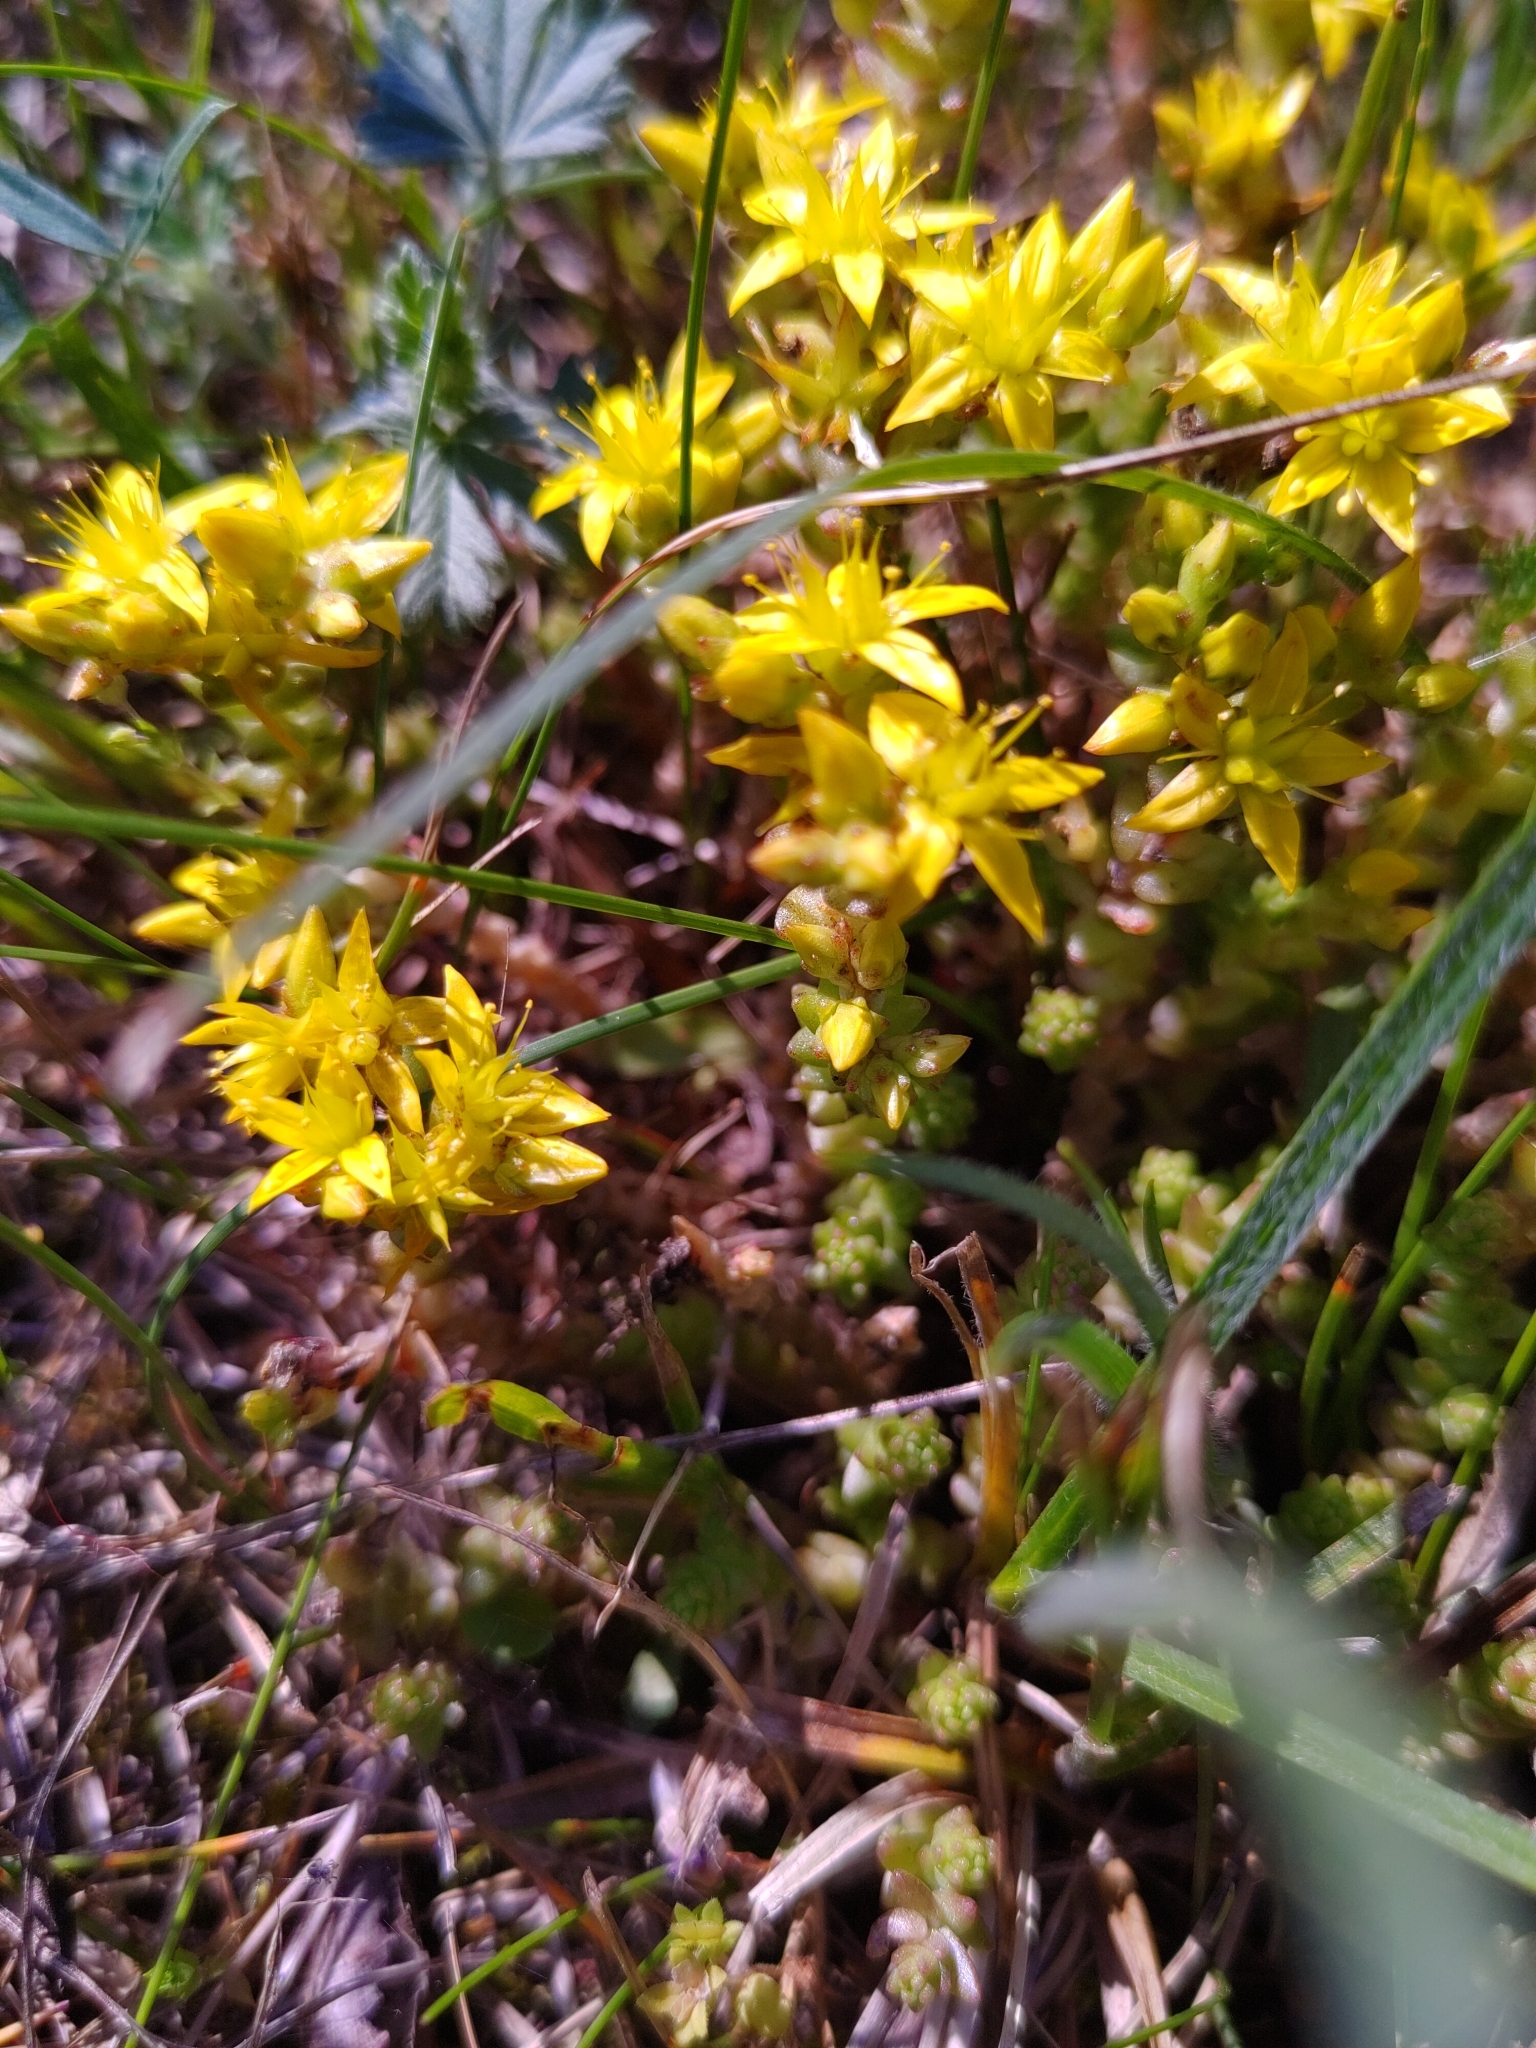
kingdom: Plantae
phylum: Tracheophyta
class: Magnoliopsida
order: Saxifragales
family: Crassulaceae
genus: Sedum
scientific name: Sedum acre
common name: Biting stonecrop
